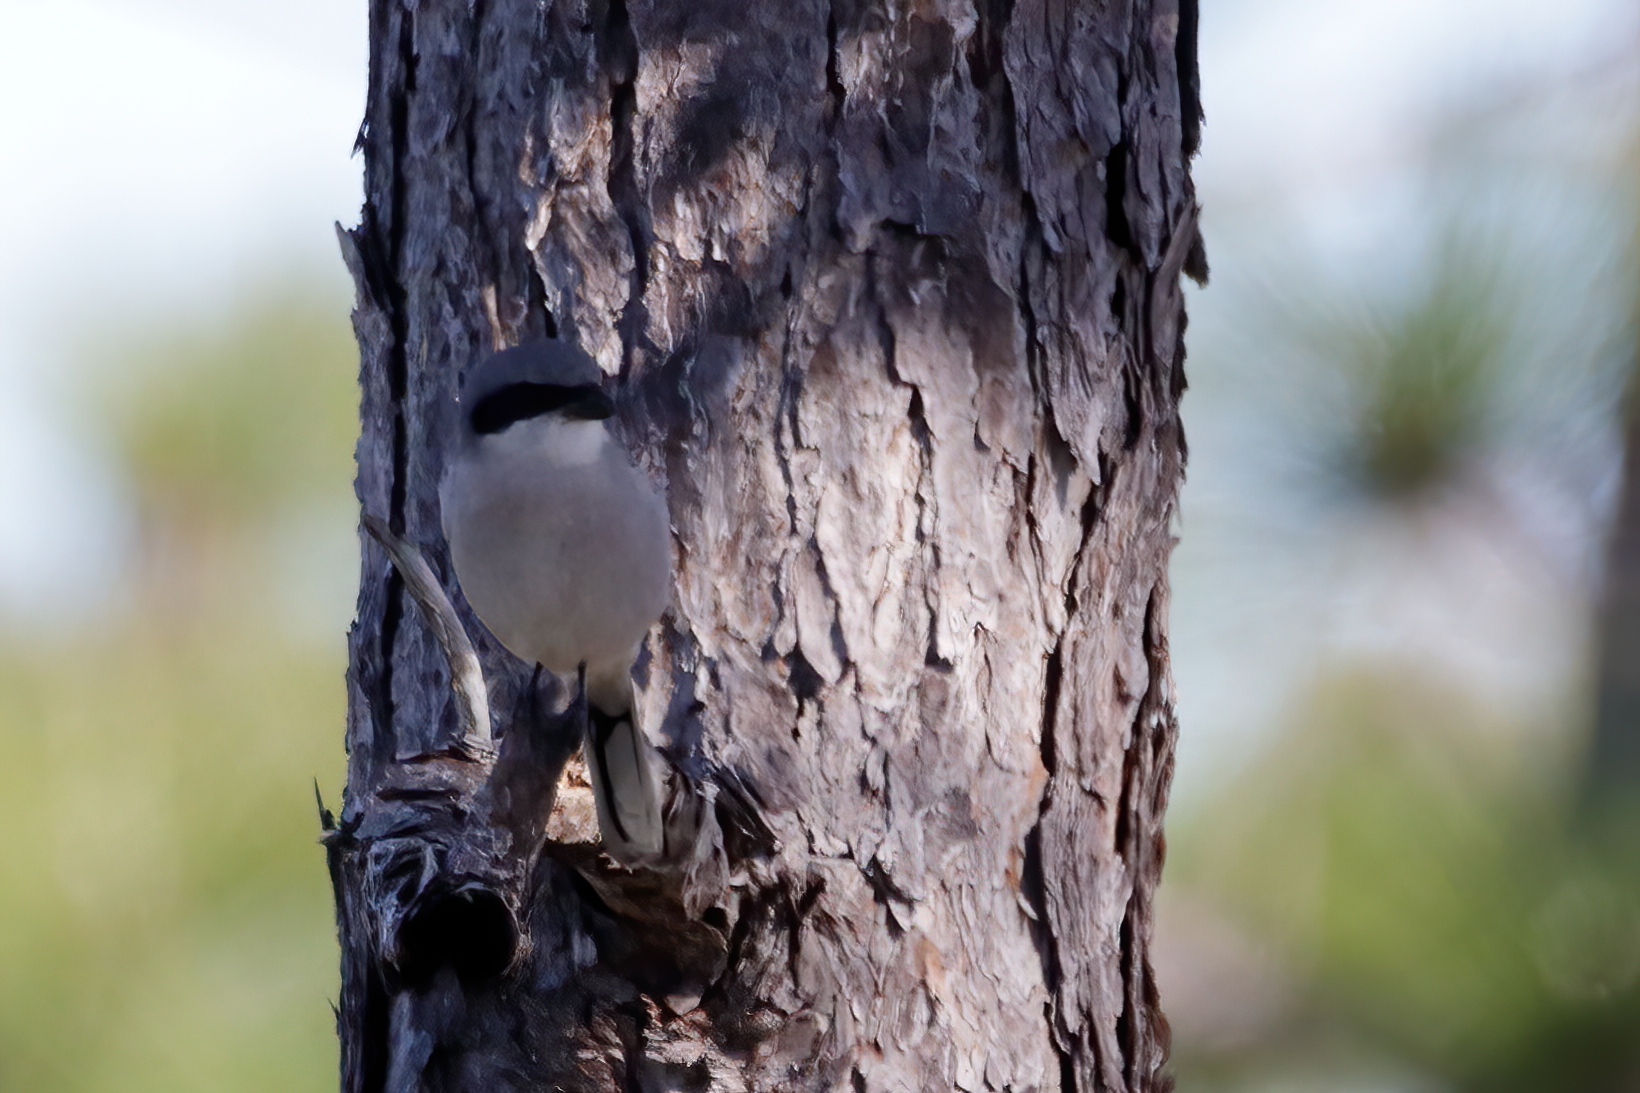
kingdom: Animalia
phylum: Chordata
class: Aves
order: Passeriformes
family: Laniidae
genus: Lanius
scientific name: Lanius ludovicianus
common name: Loggerhead shrike
